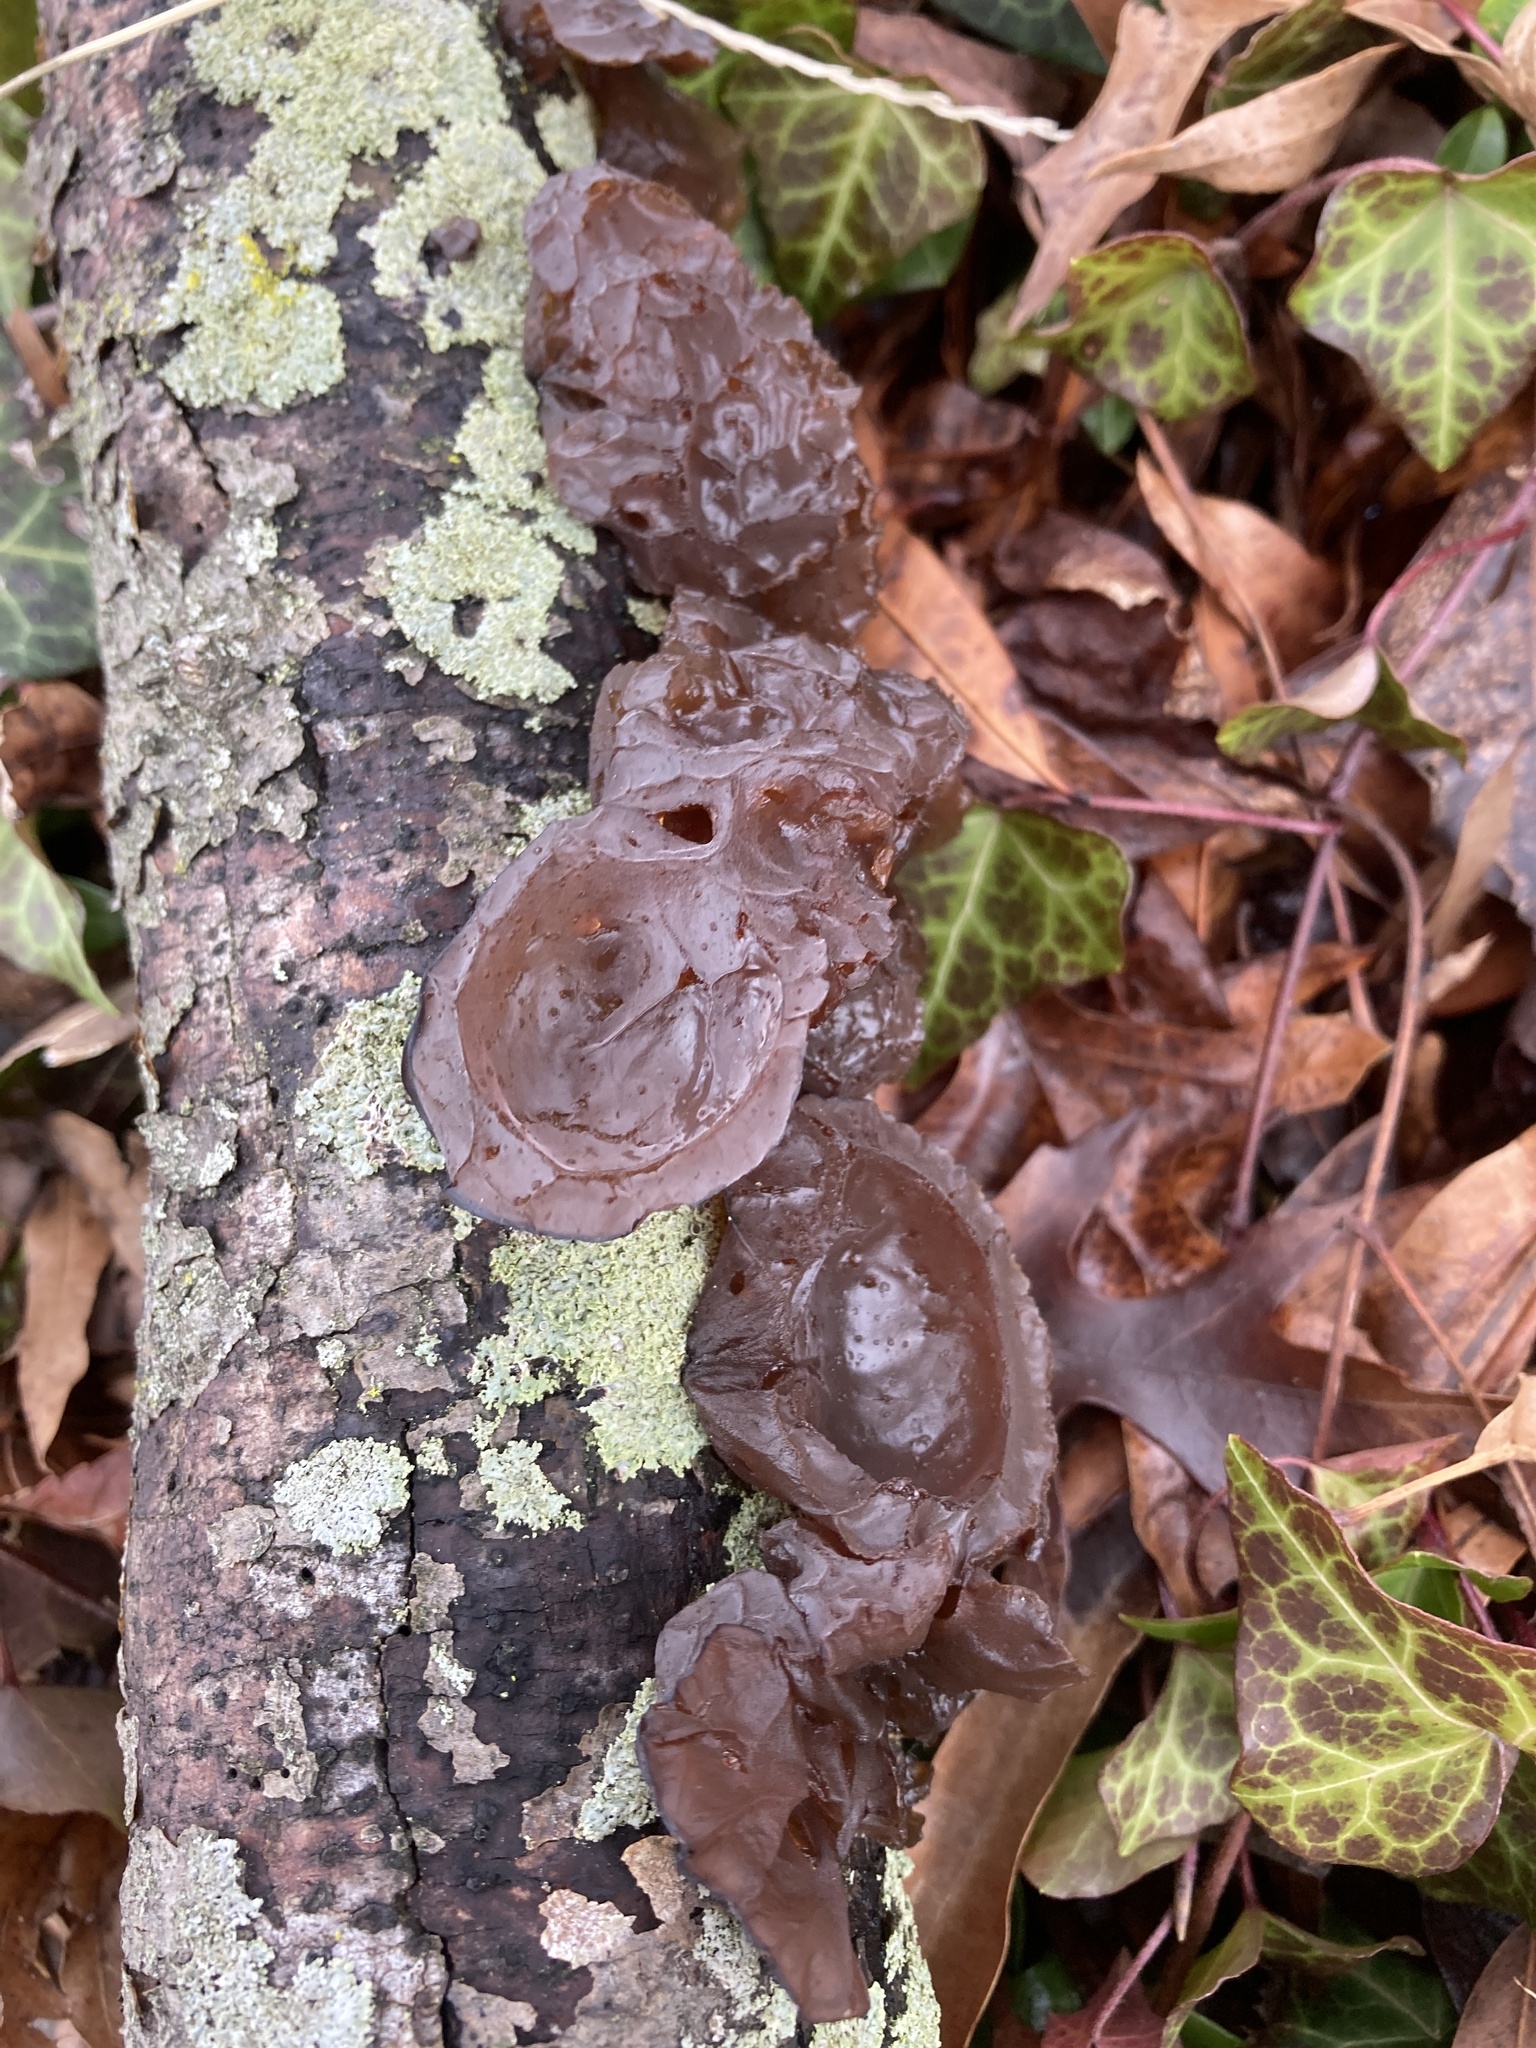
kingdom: Fungi
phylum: Basidiomycota
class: Agaricomycetes
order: Auriculariales
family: Auriculariaceae
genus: Exidia
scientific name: Exidia
